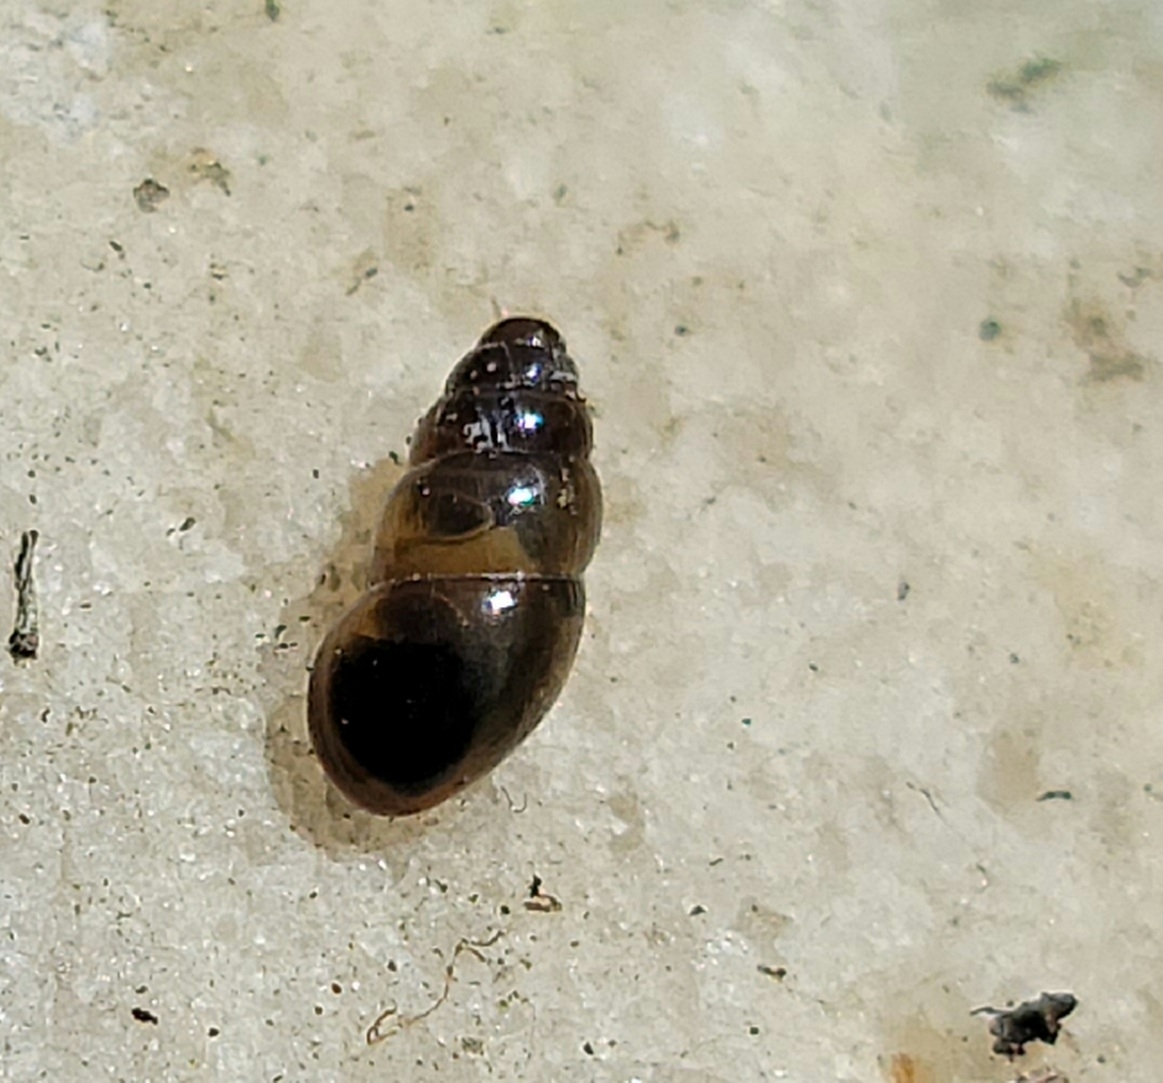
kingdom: Animalia
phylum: Mollusca
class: Gastropoda
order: Stylommatophora
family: Cochlicopidae
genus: Cochlicopa
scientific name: Cochlicopa lubrica
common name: Glossy pillar snail
